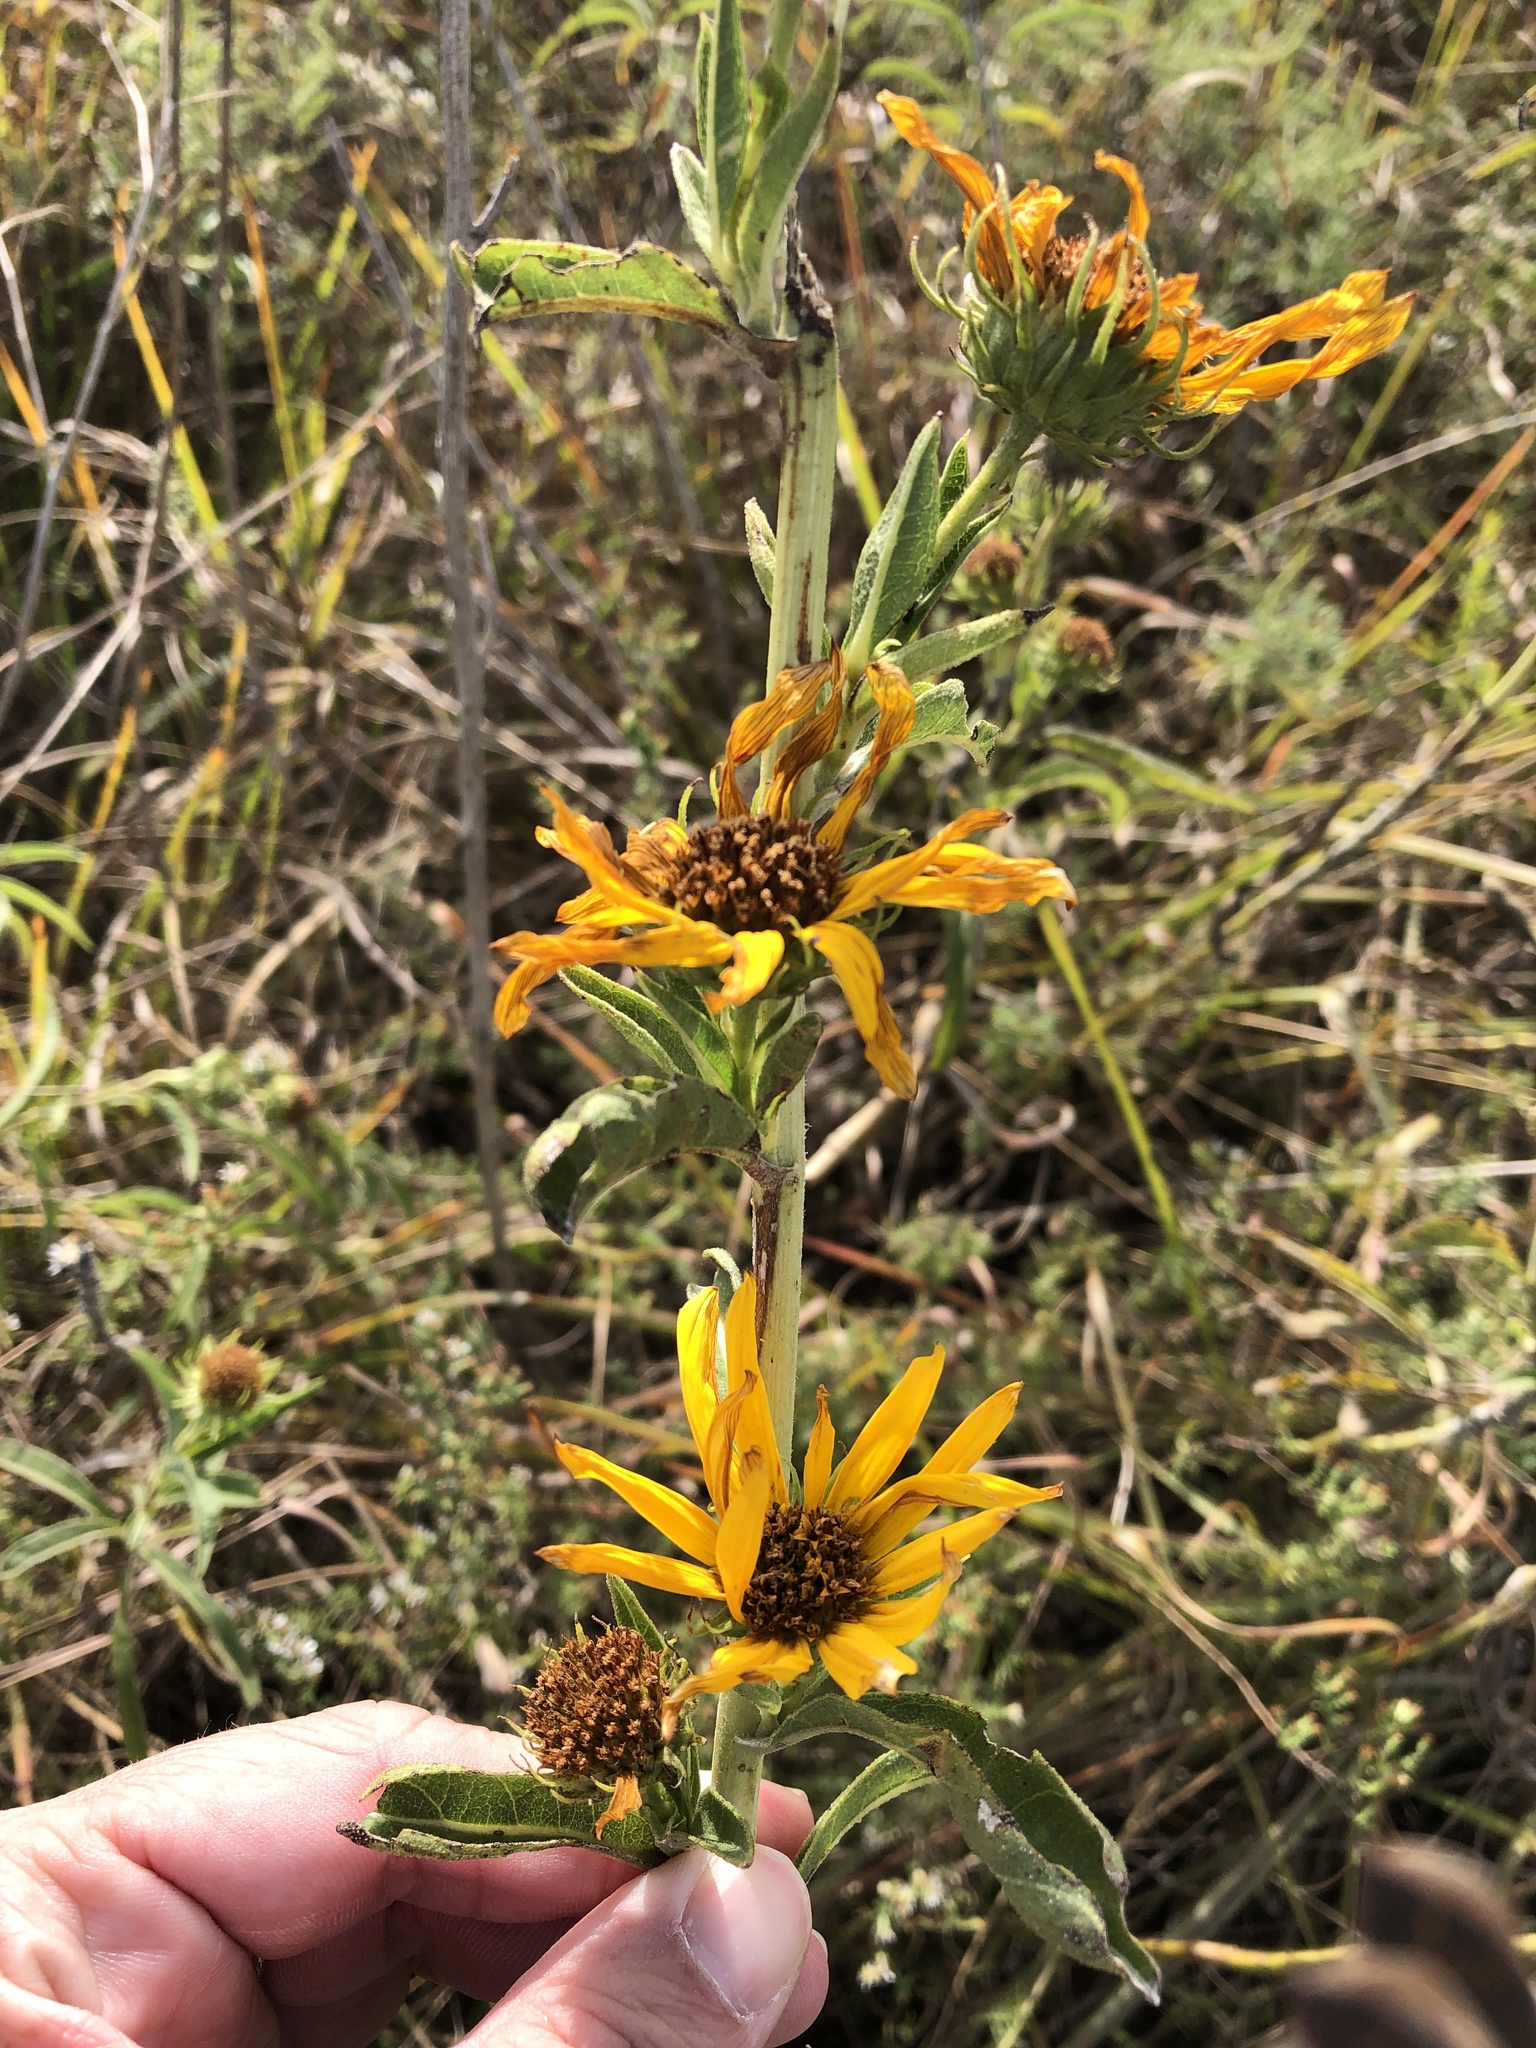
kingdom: Plantae
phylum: Tracheophyta
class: Magnoliopsida
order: Asterales
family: Asteraceae
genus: Helianthus
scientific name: Helianthus maximiliani
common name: Maximilian's sunflower
